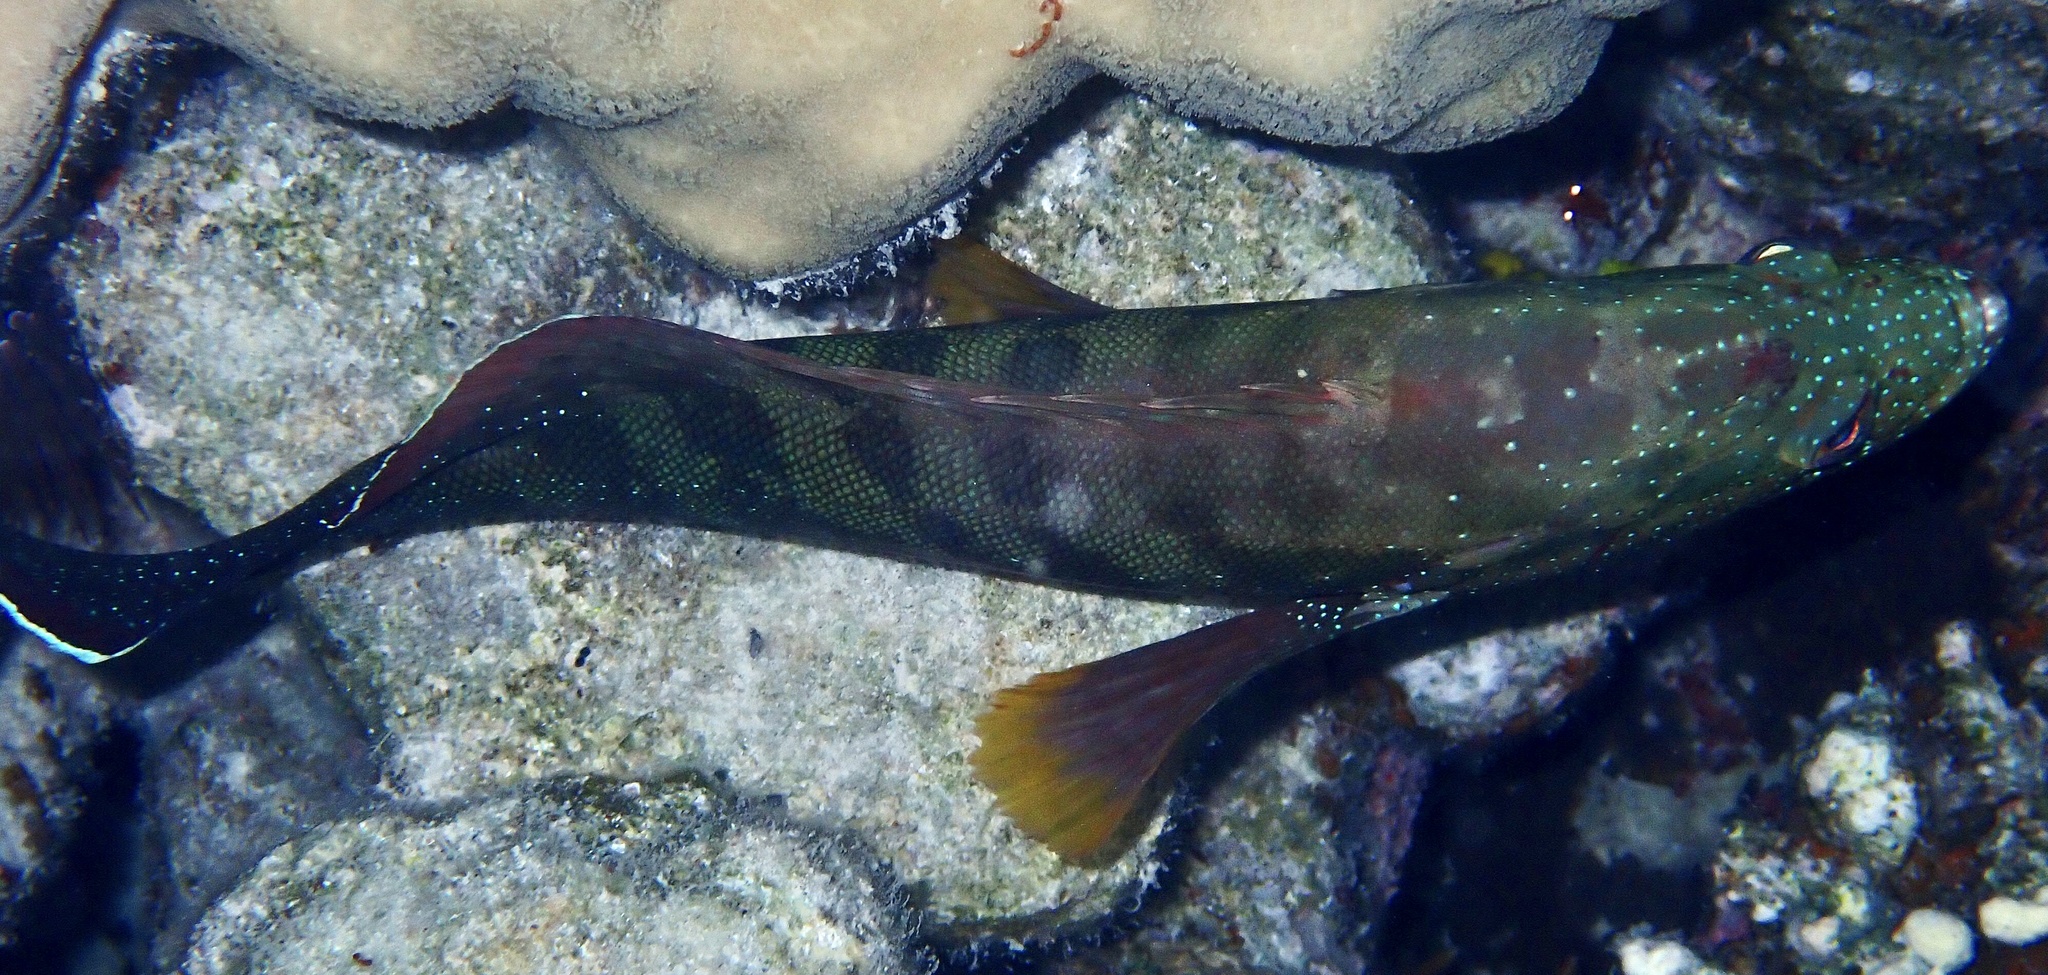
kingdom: Animalia
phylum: Chordata
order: Perciformes
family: Serranidae
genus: Cephalopholis
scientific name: Cephalopholis hemistiktos
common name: Halfspotted hind
